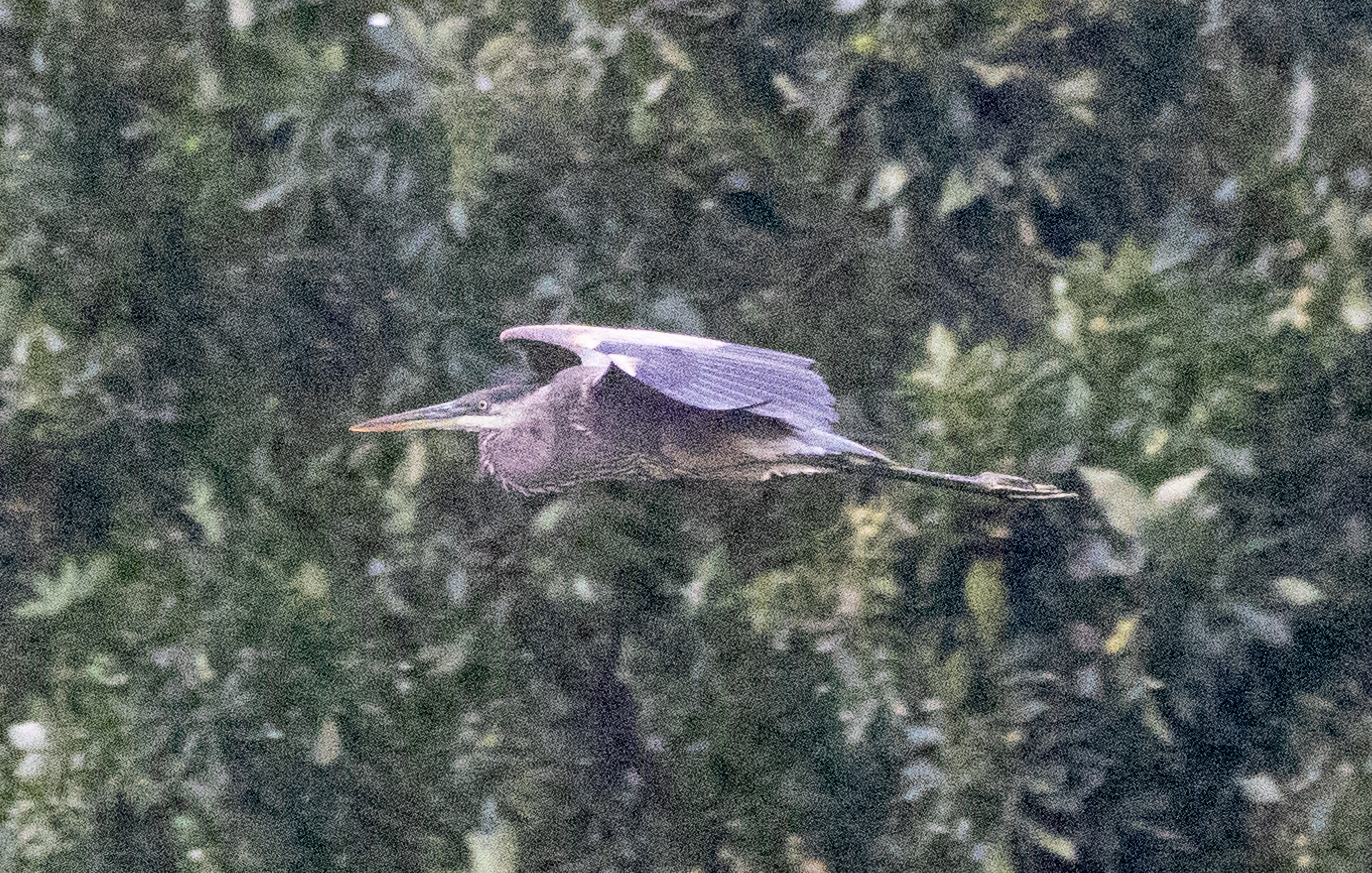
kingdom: Animalia
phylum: Chordata
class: Aves
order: Pelecaniformes
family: Ardeidae
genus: Ardea
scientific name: Ardea herodias
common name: Great blue heron
